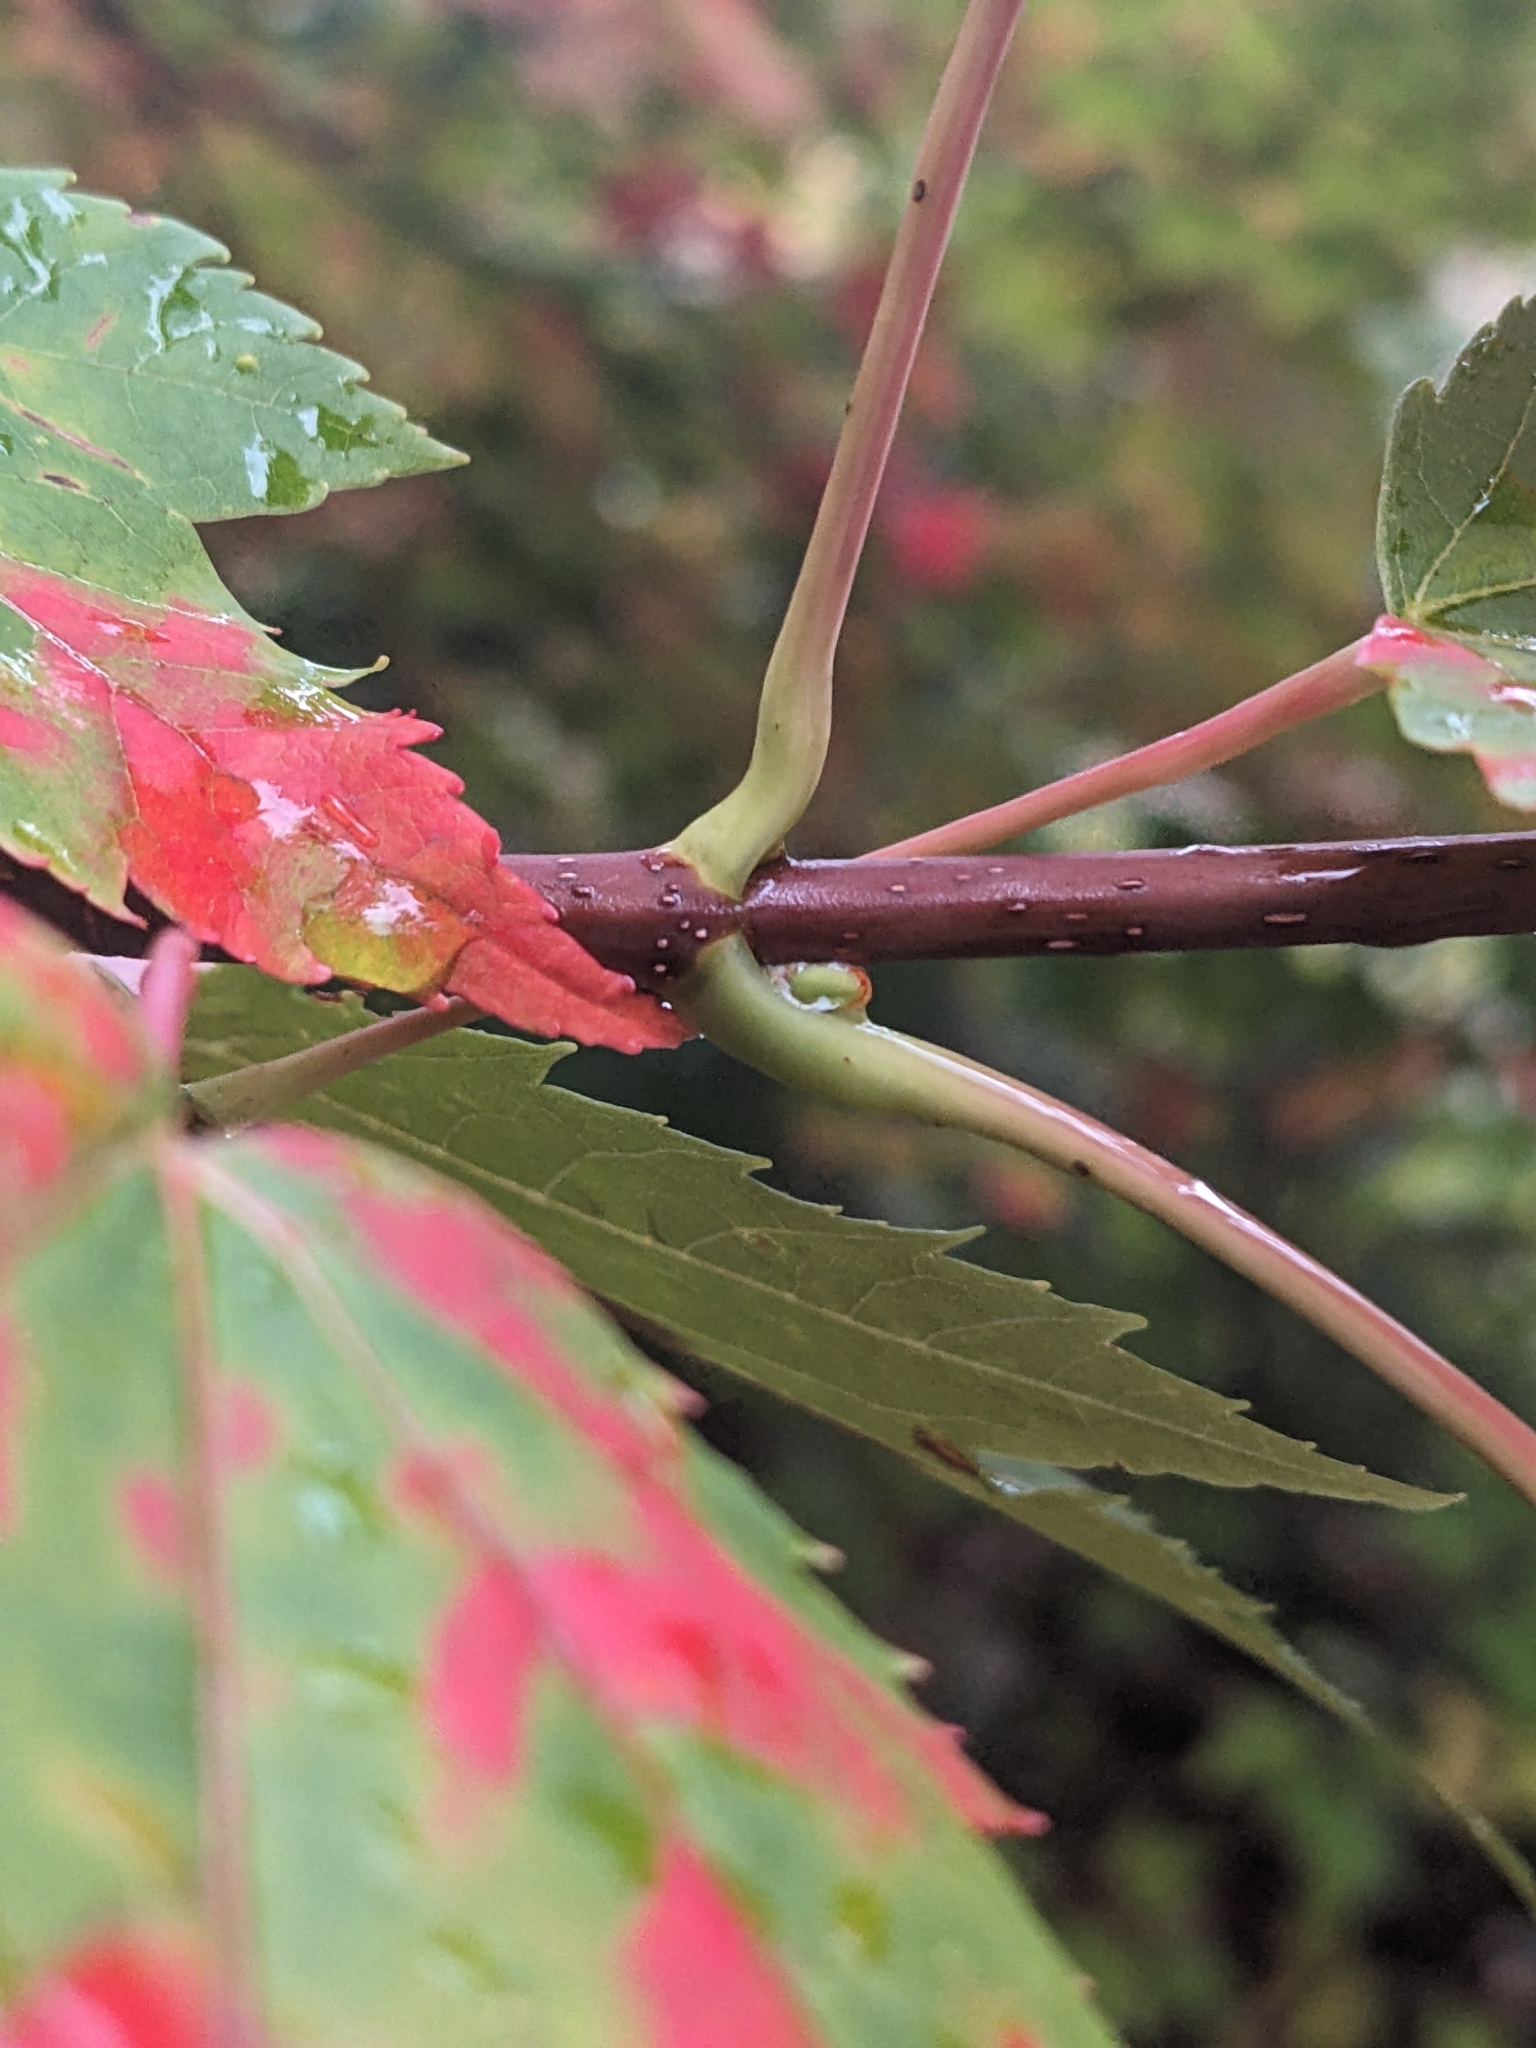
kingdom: Plantae
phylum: Tracheophyta
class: Magnoliopsida
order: Sapindales
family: Sapindaceae
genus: Acer
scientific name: Acer rubrum
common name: Red maple
